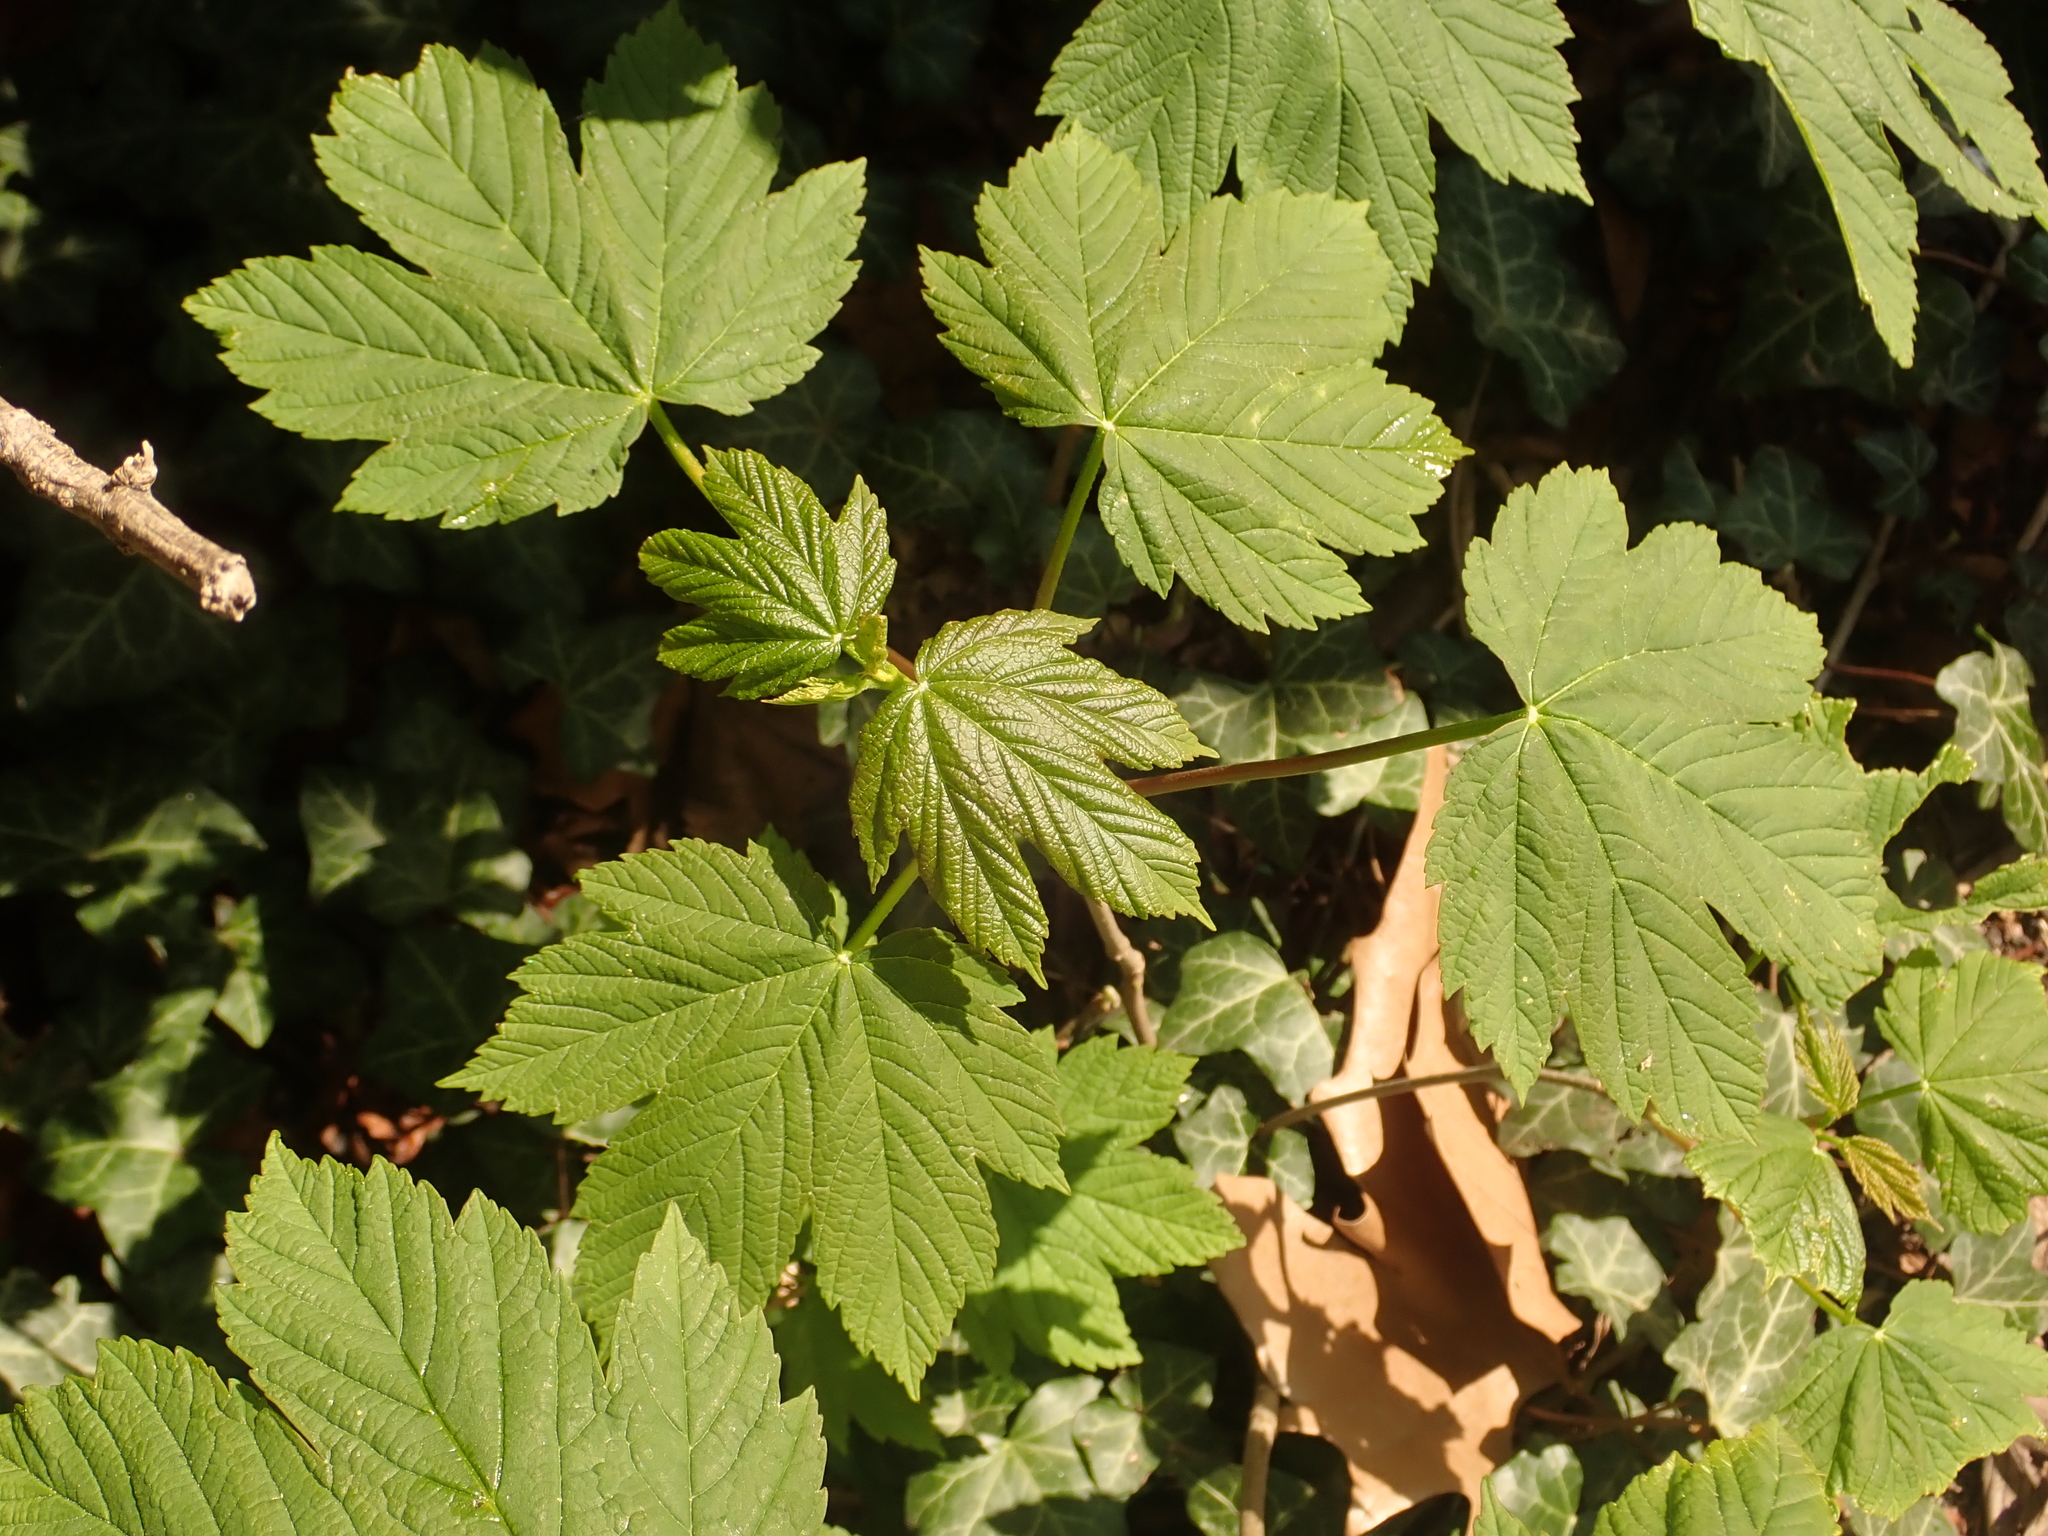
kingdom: Plantae
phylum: Tracheophyta
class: Magnoliopsida
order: Sapindales
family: Sapindaceae
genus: Acer
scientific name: Acer pseudoplatanus
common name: Sycamore
